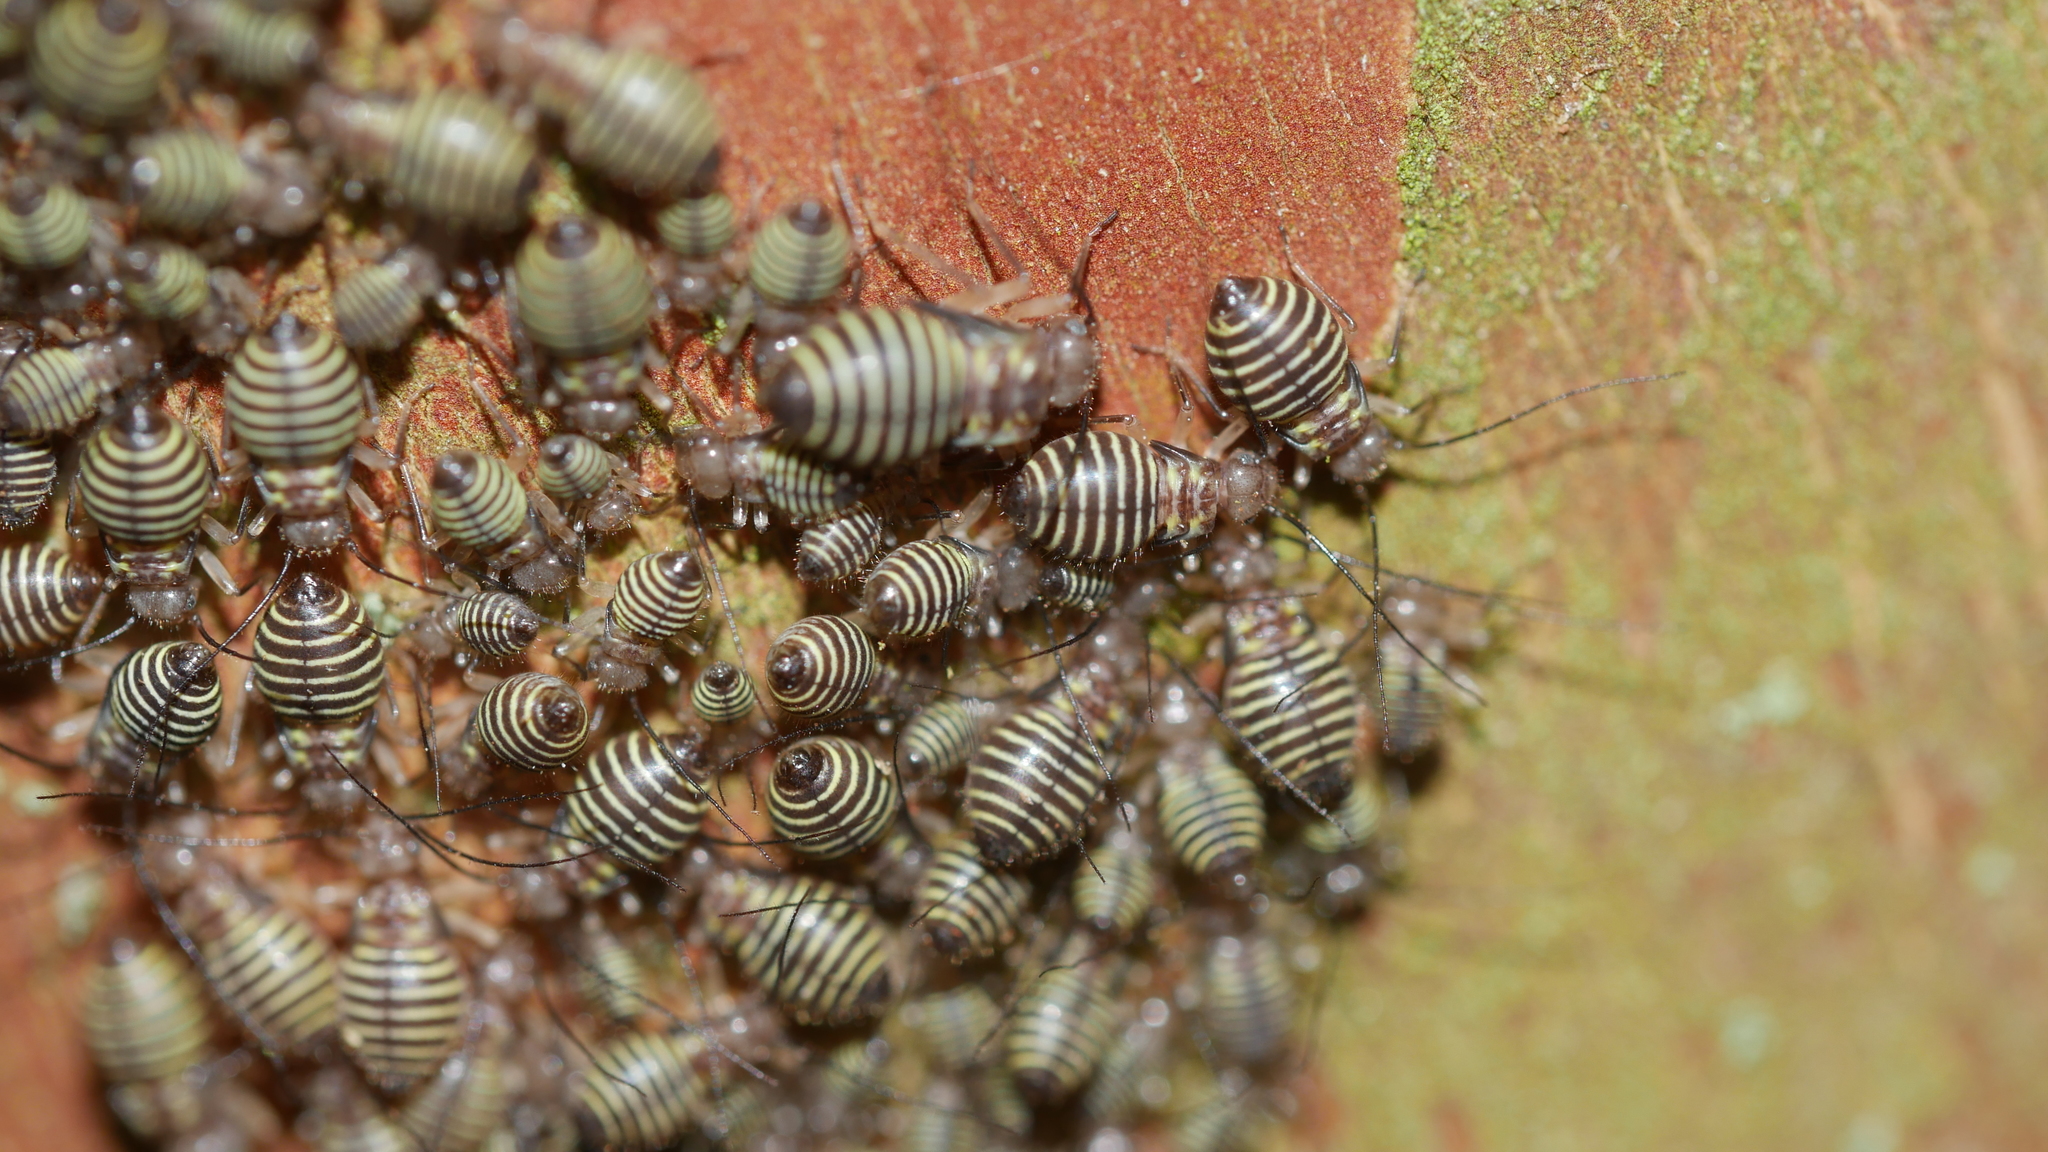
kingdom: Animalia
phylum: Arthropoda
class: Insecta
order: Psocodea
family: Psocidae
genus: Cerastipsocus
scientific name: Cerastipsocus venosus
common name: Tree cattle
